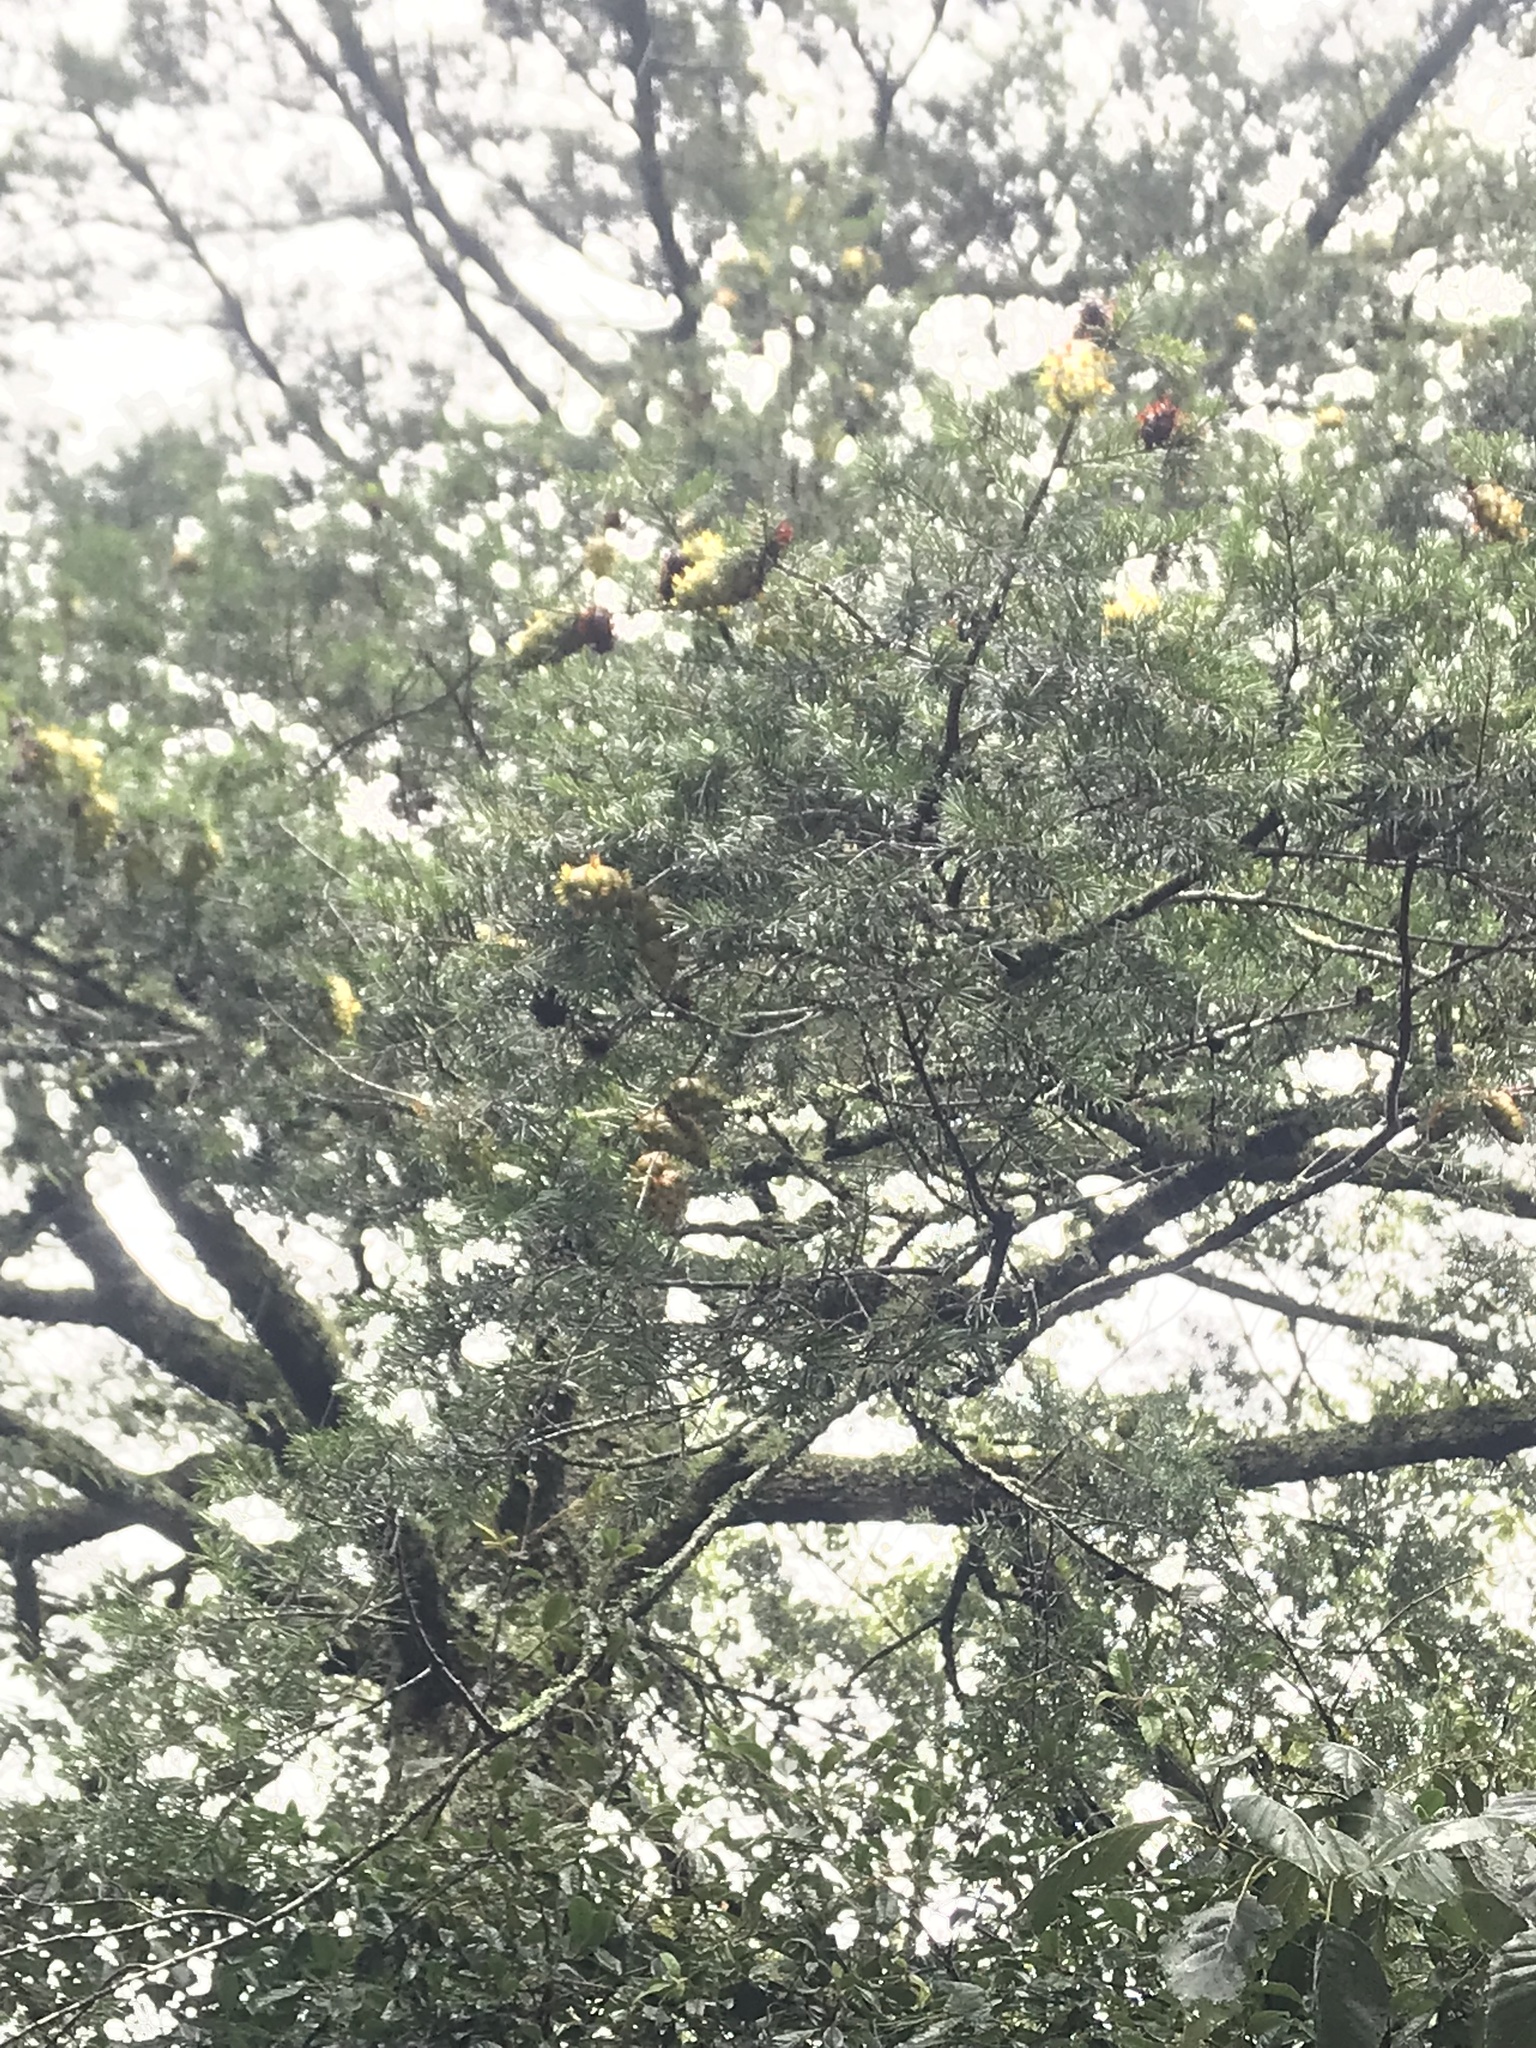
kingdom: Plantae
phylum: Tracheophyta
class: Pinopsida
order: Pinales
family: Pinaceae
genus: Pseudotsuga
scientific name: Pseudotsuga sinensis
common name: Chinese douglas-fir
